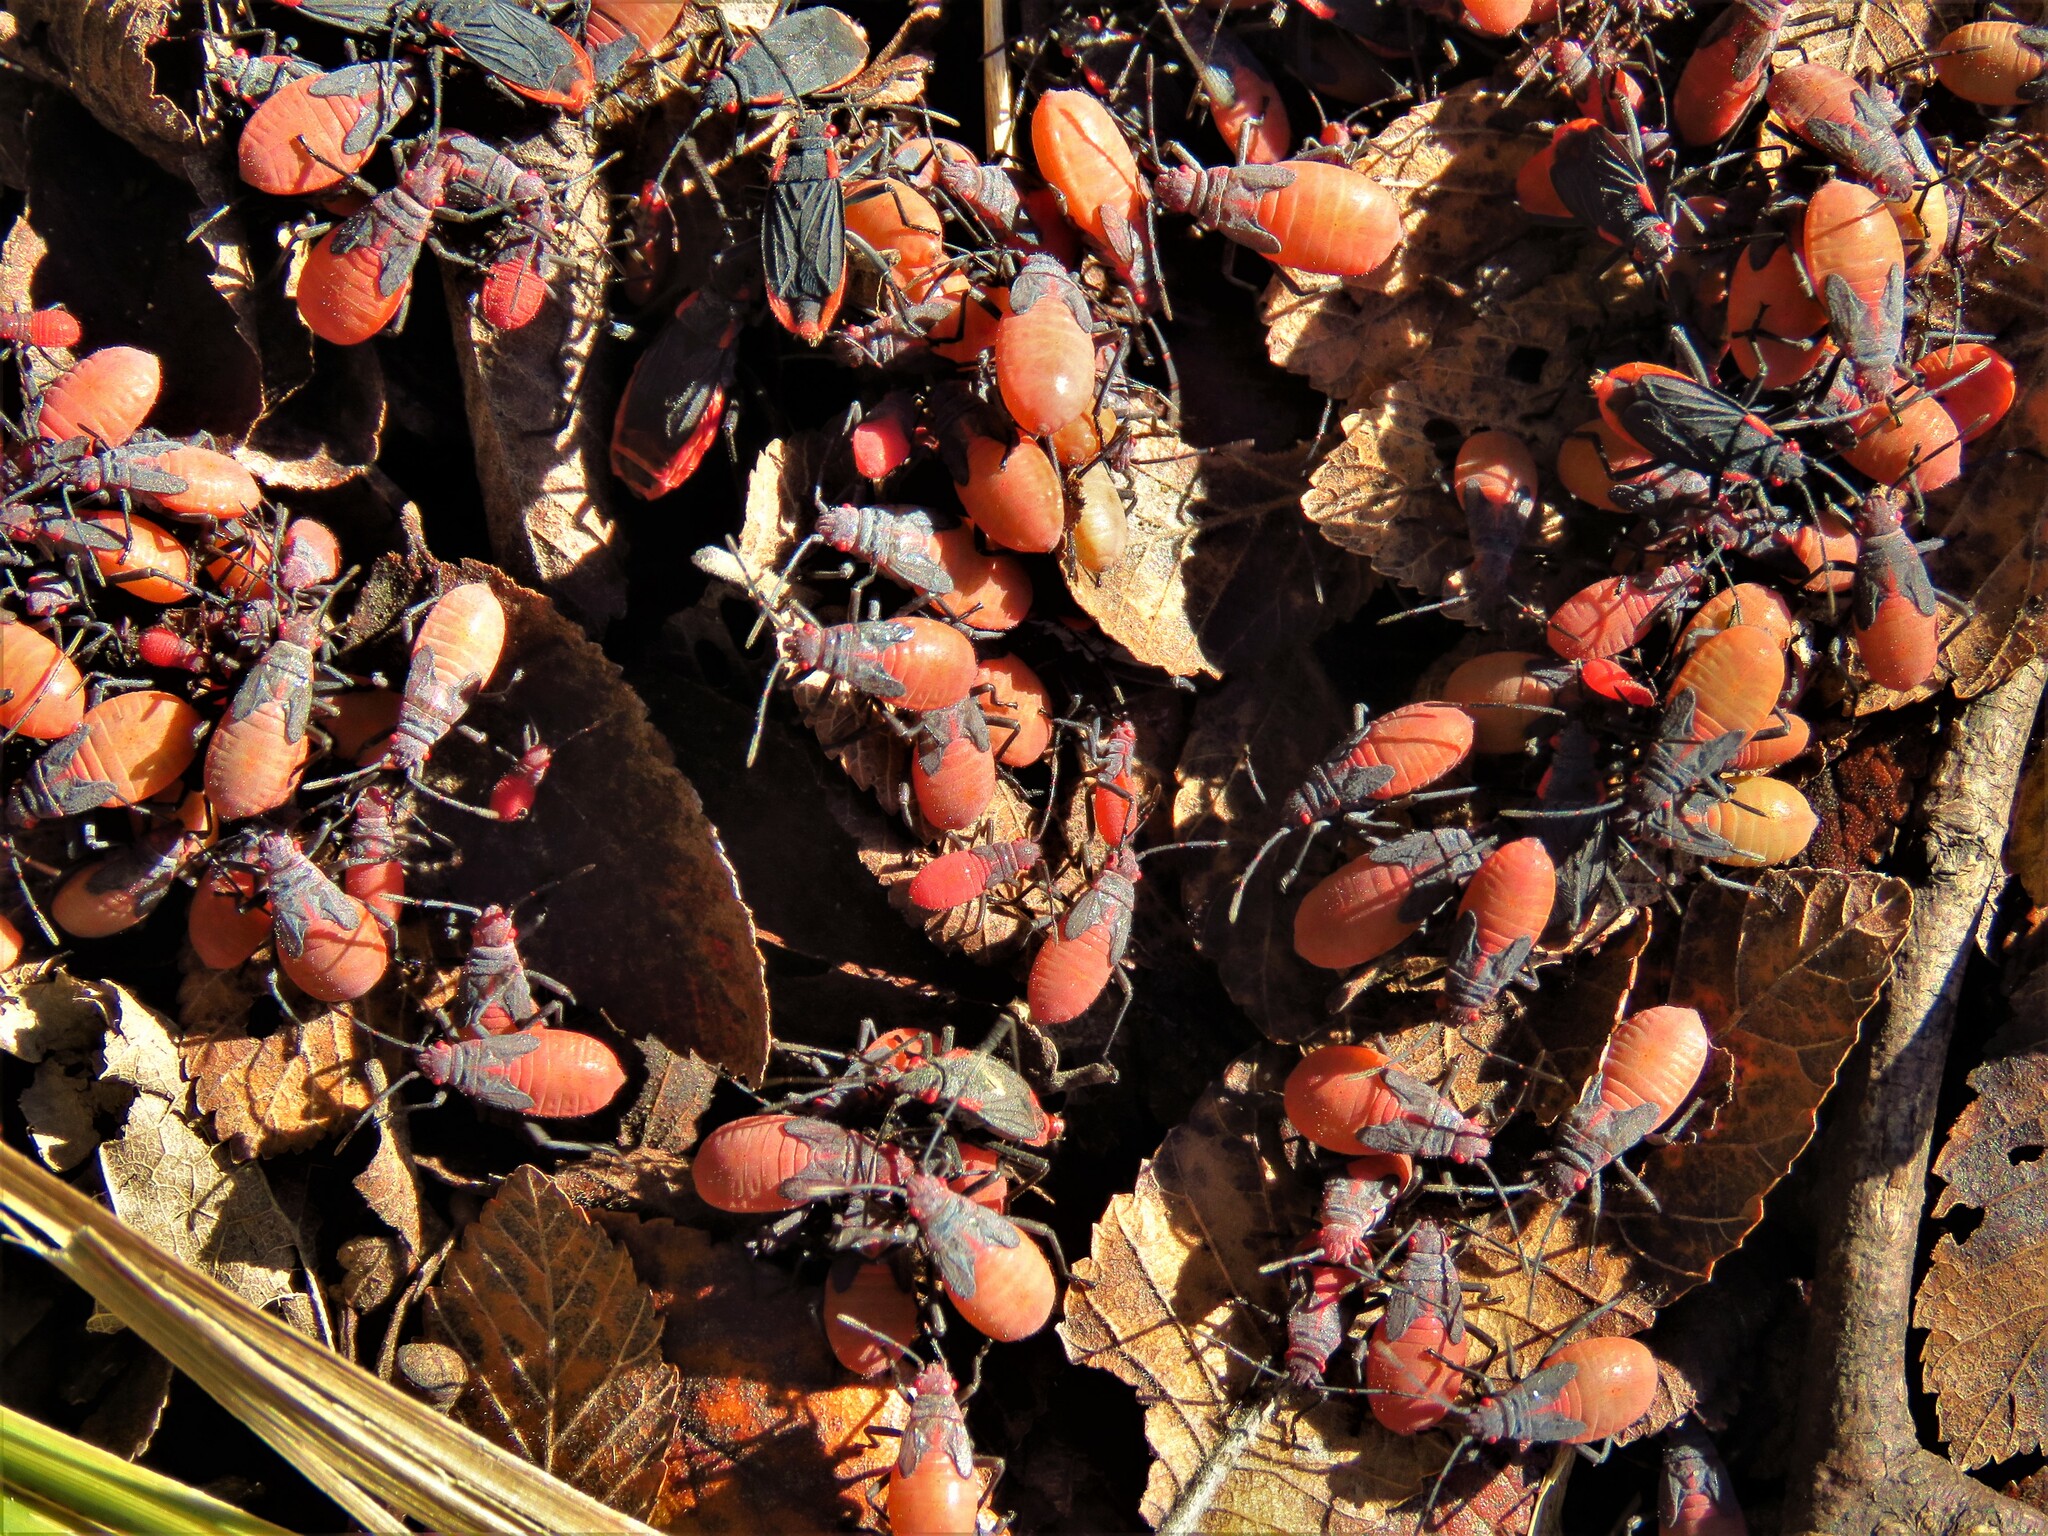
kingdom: Animalia
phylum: Arthropoda
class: Insecta
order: Hemiptera
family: Rhopalidae
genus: Jadera
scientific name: Jadera haematoloma
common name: Red-shouldered bug
